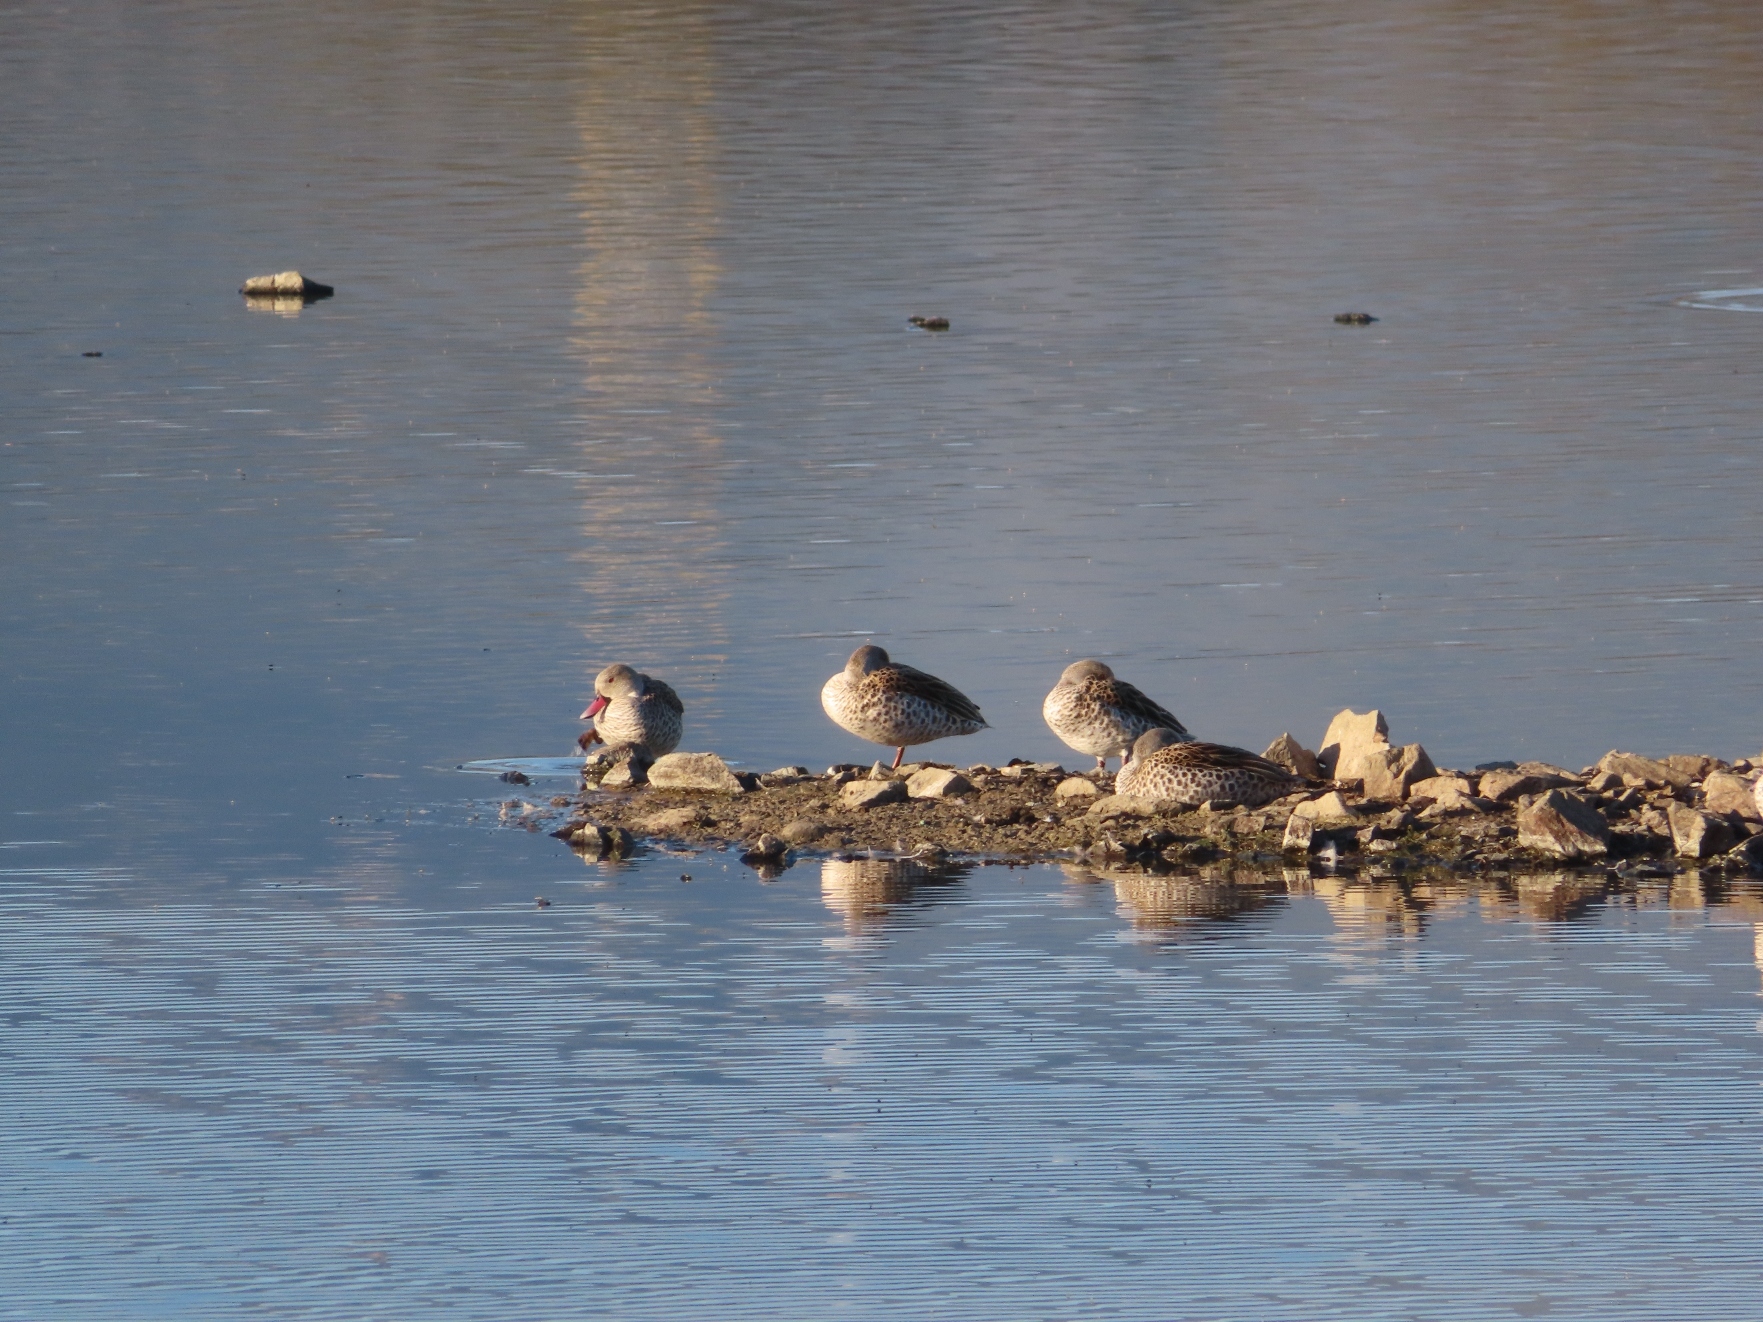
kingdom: Animalia
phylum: Chordata
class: Aves
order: Anseriformes
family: Anatidae
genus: Anas
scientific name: Anas capensis
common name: Cape teal
